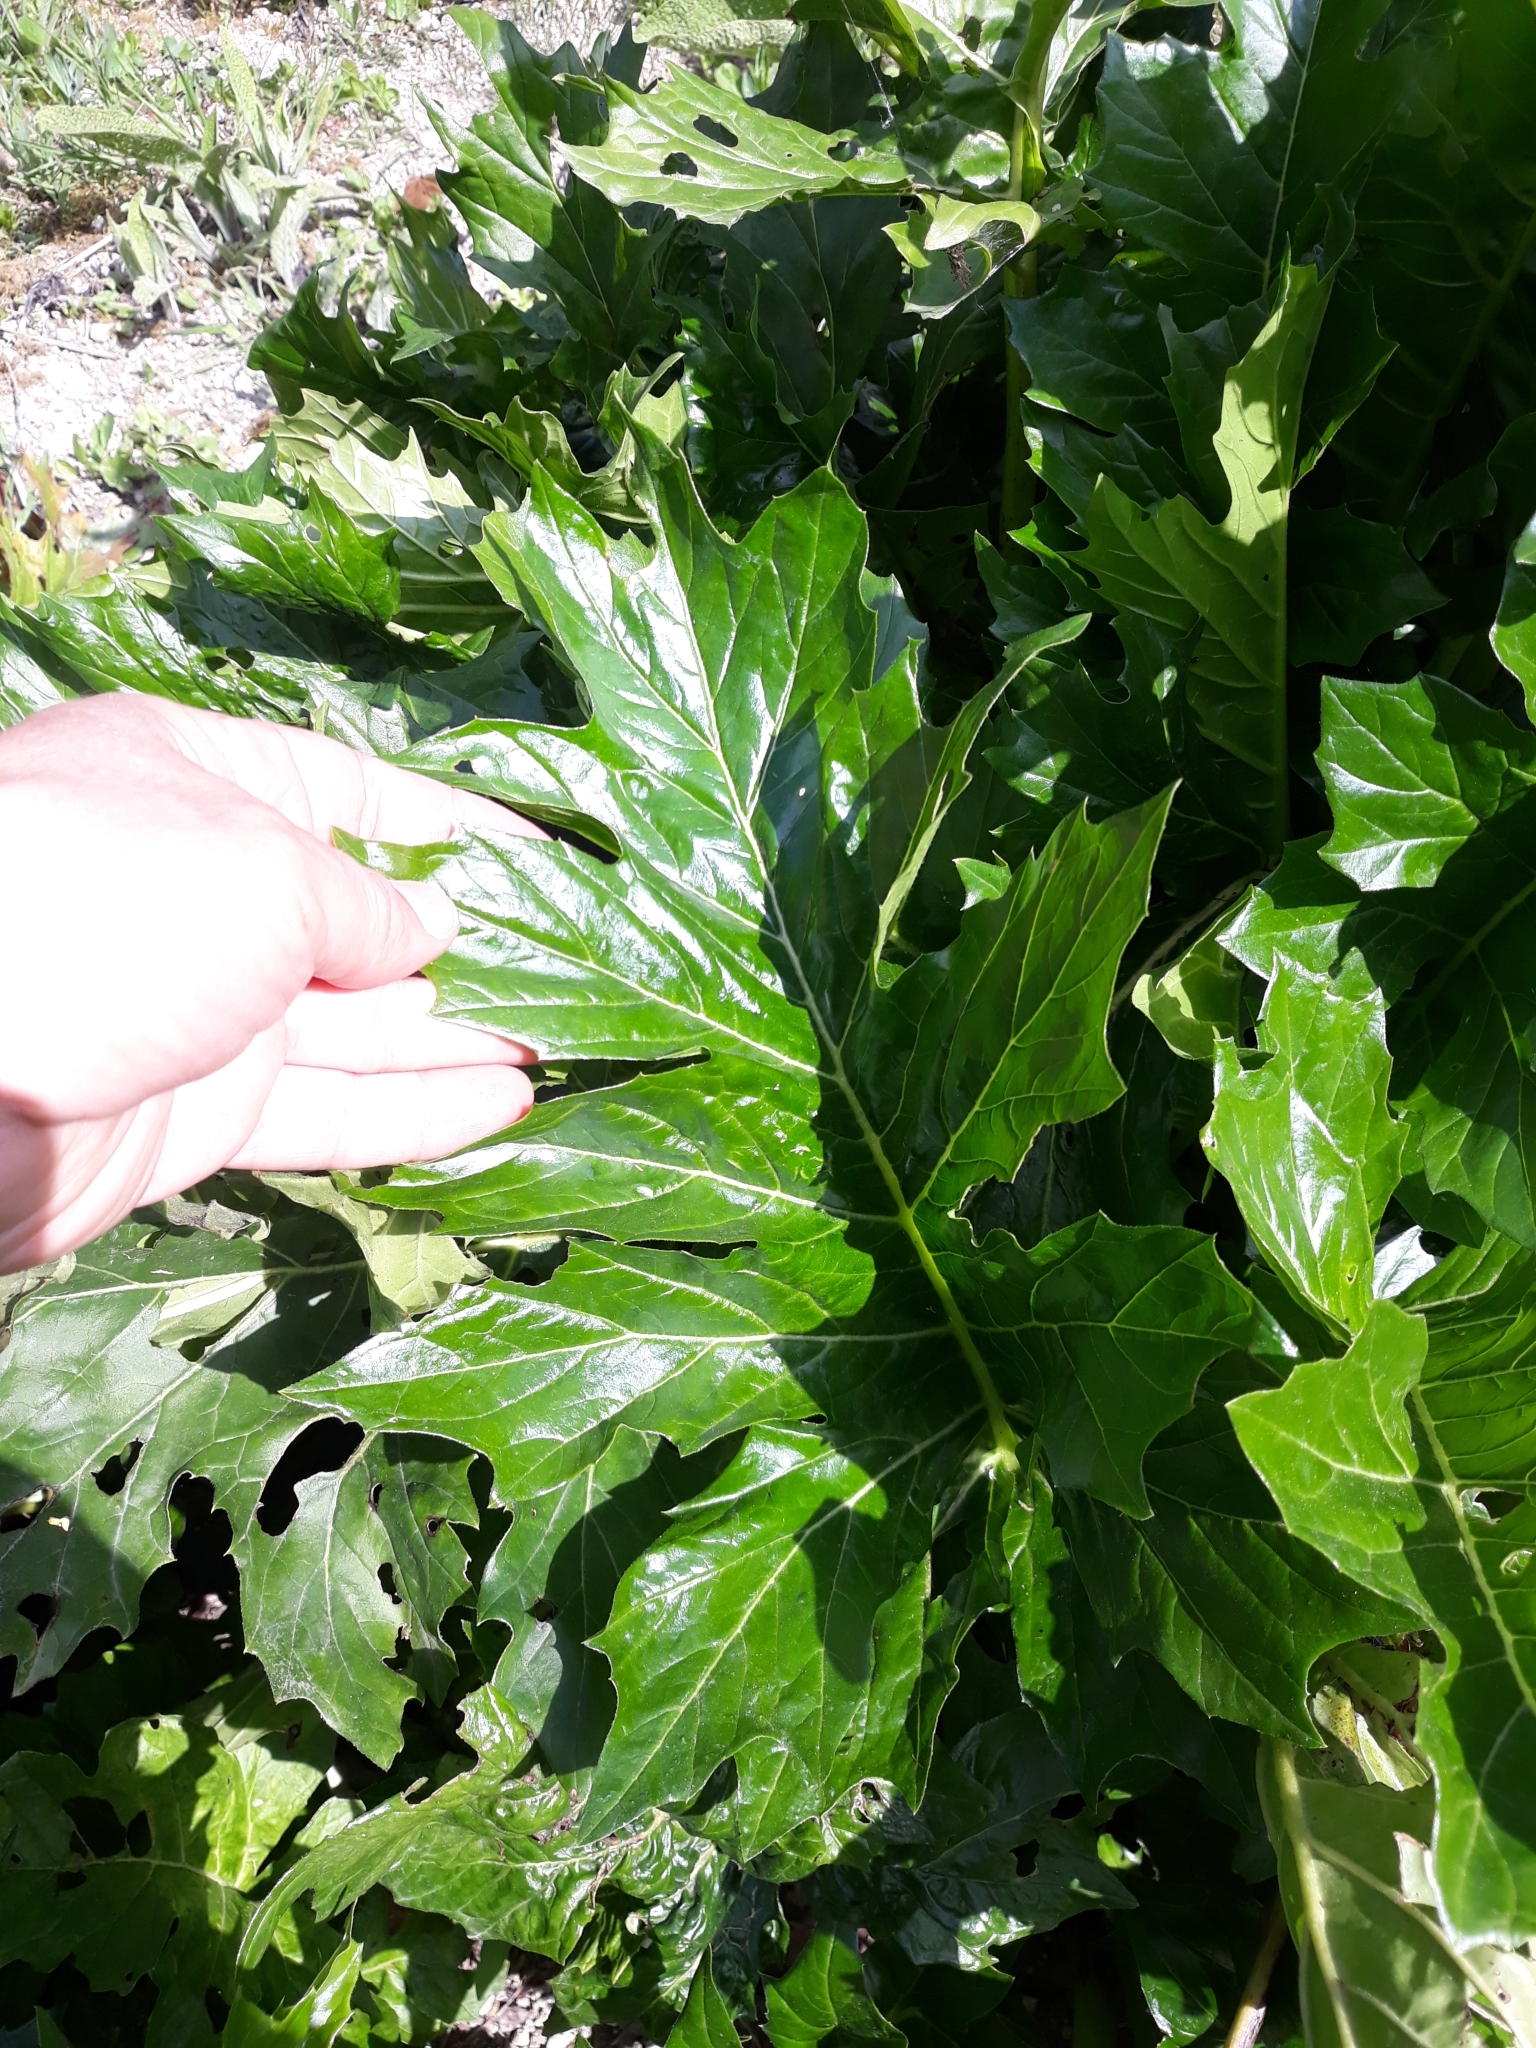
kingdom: Plantae
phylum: Tracheophyta
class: Magnoliopsida
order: Lamiales
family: Acanthaceae
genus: Acanthus
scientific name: Acanthus mollis
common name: Bear's-breech
